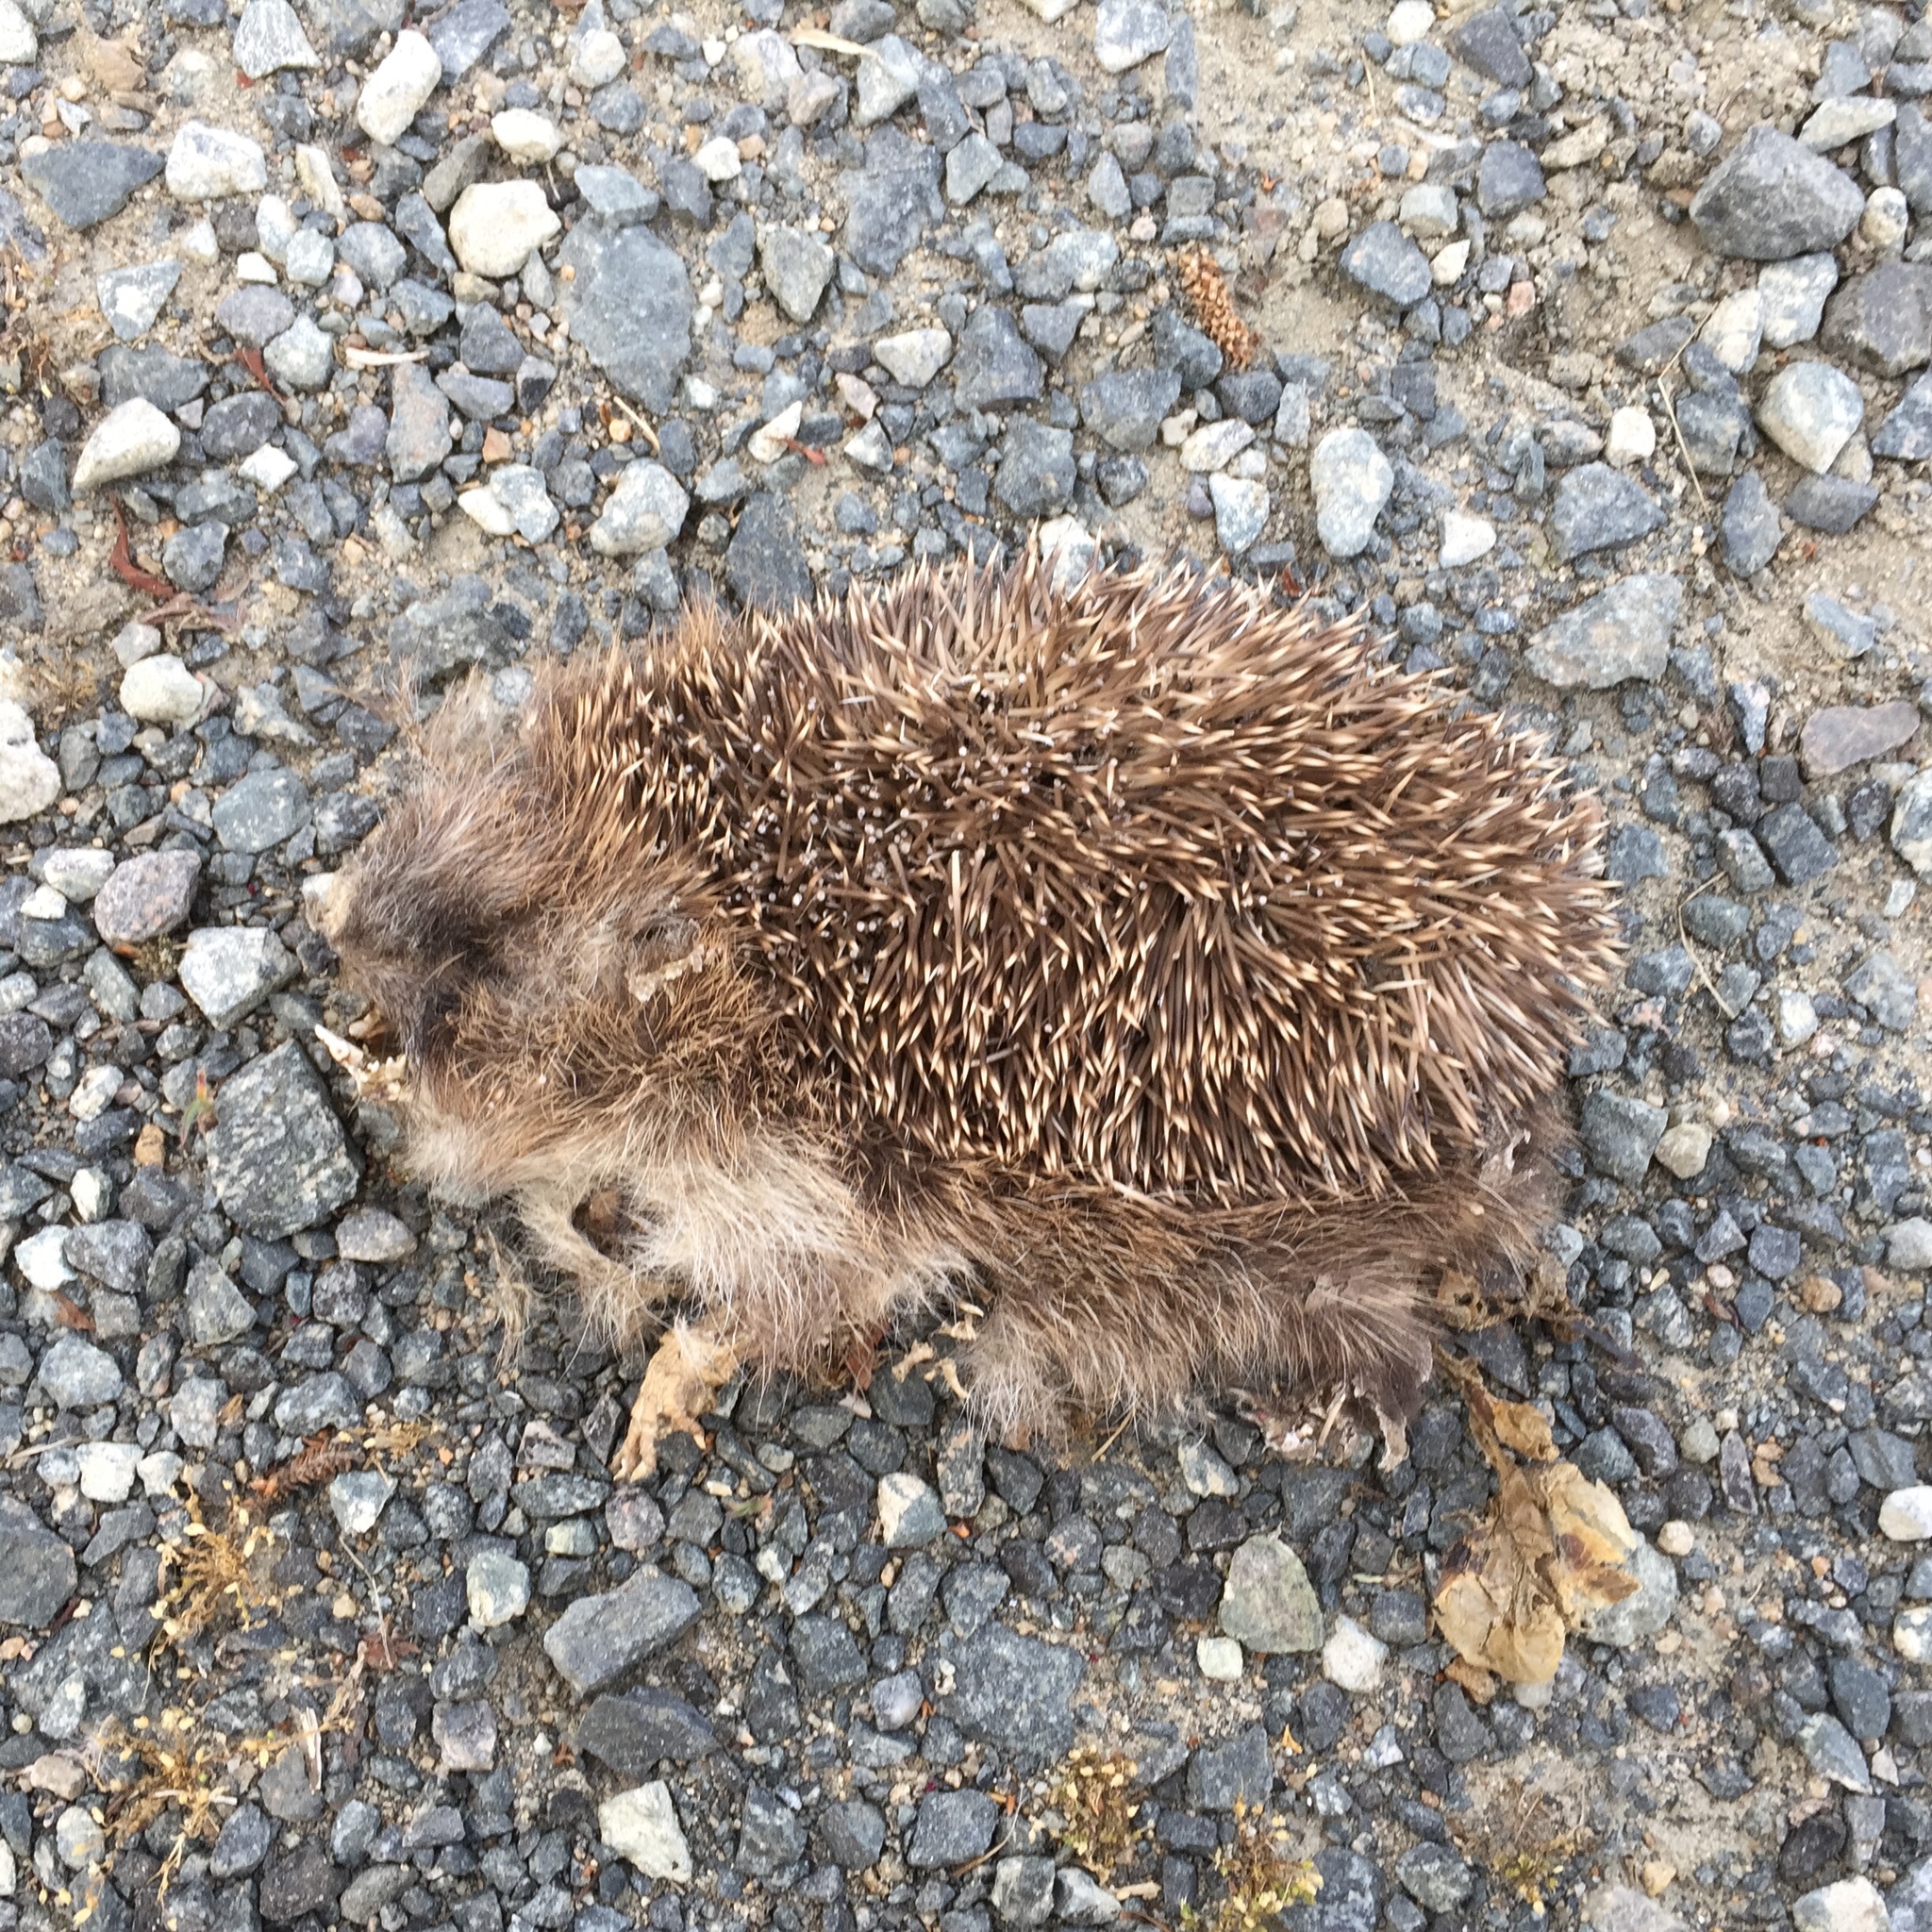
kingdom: Animalia
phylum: Chordata
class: Mammalia
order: Erinaceomorpha
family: Erinaceidae
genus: Erinaceus
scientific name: Erinaceus europaeus
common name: West european hedgehog
